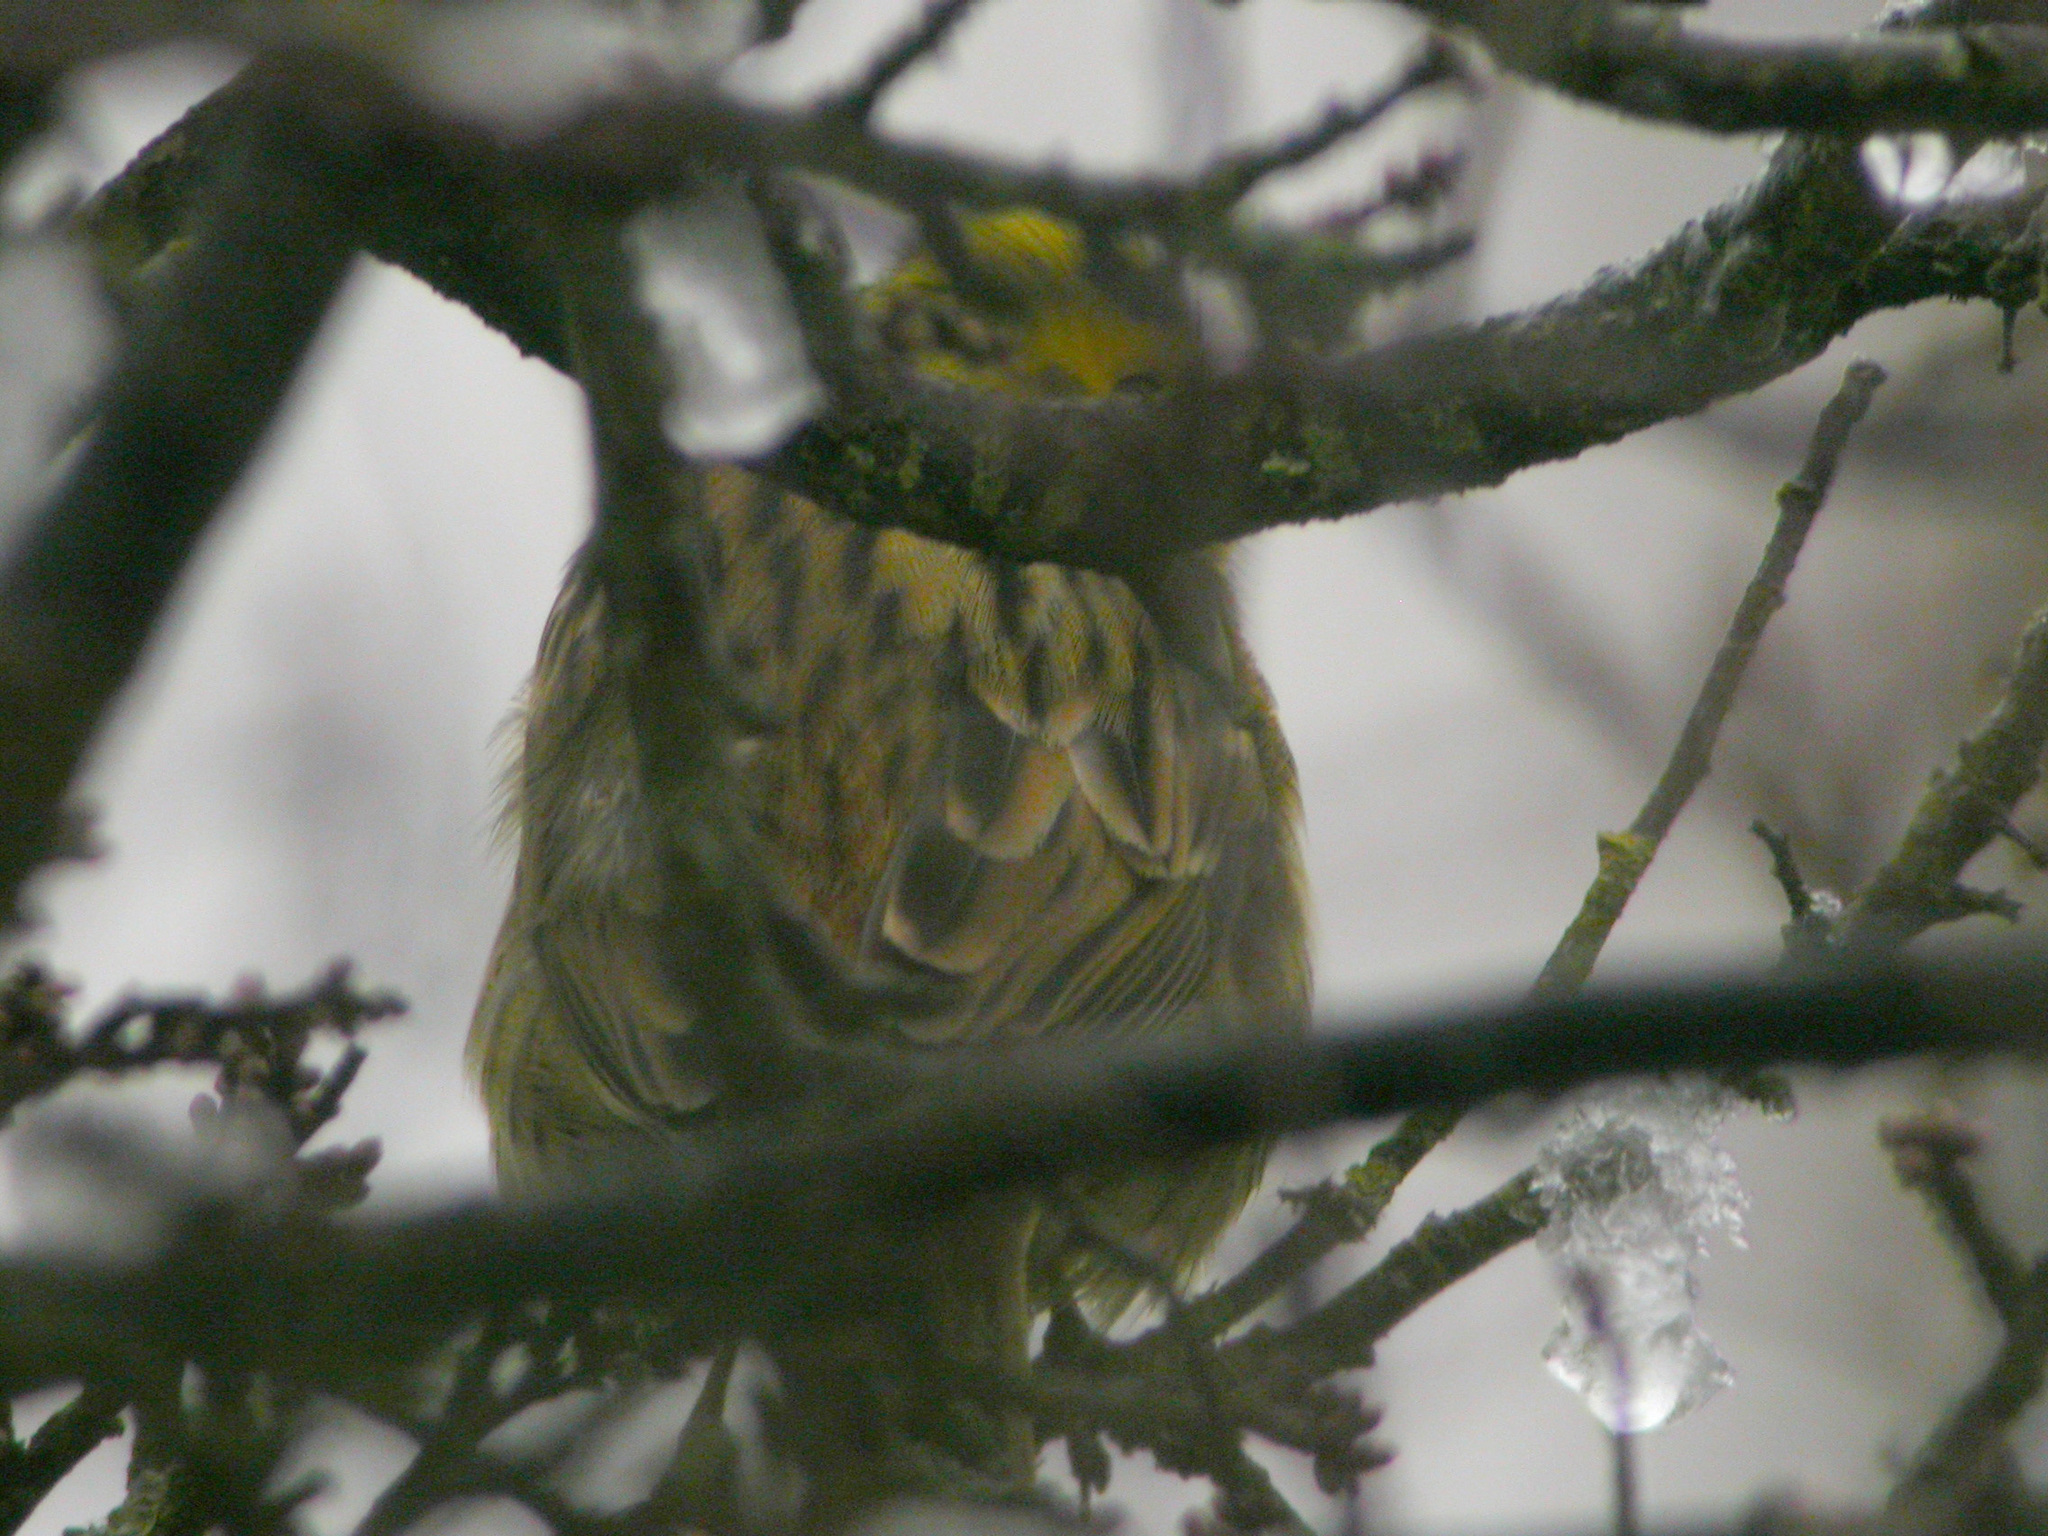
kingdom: Animalia
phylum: Chordata
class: Aves
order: Passeriformes
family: Emberizidae
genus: Emberiza
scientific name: Emberiza citrinella
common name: Yellowhammer
